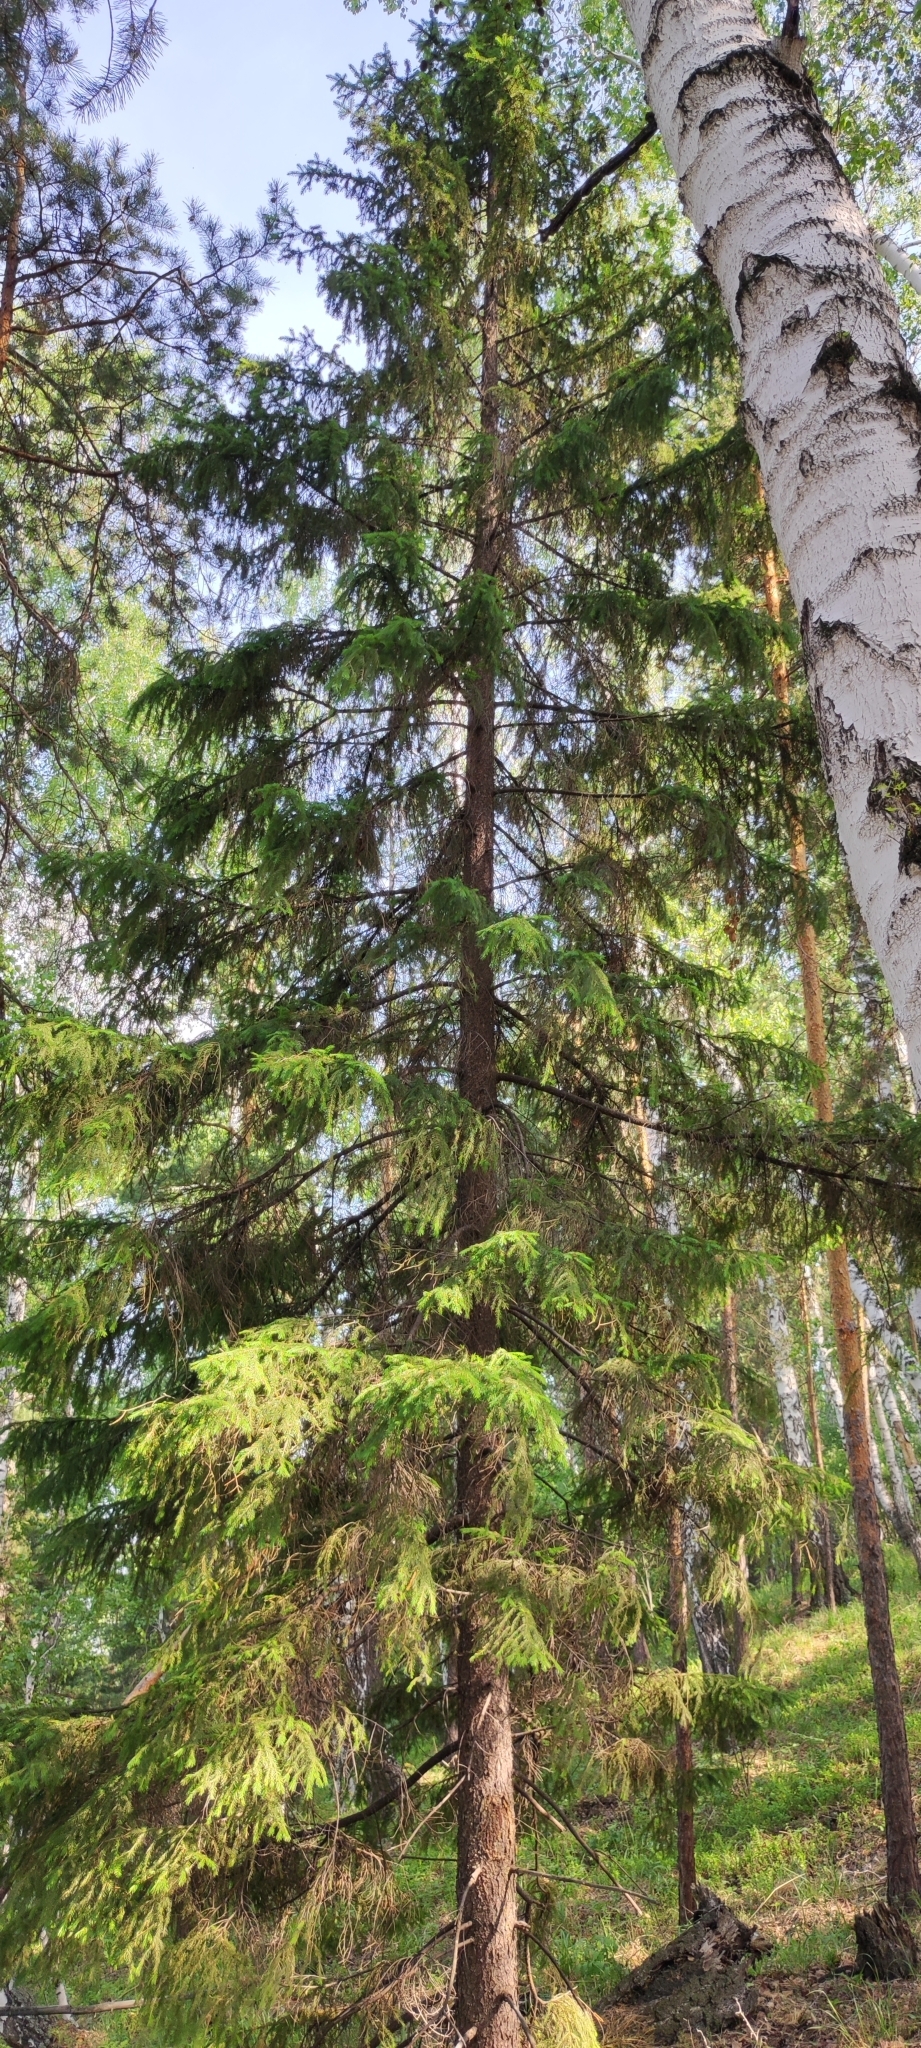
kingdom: Plantae
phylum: Tracheophyta
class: Pinopsida
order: Pinales
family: Pinaceae
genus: Picea
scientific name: Picea
